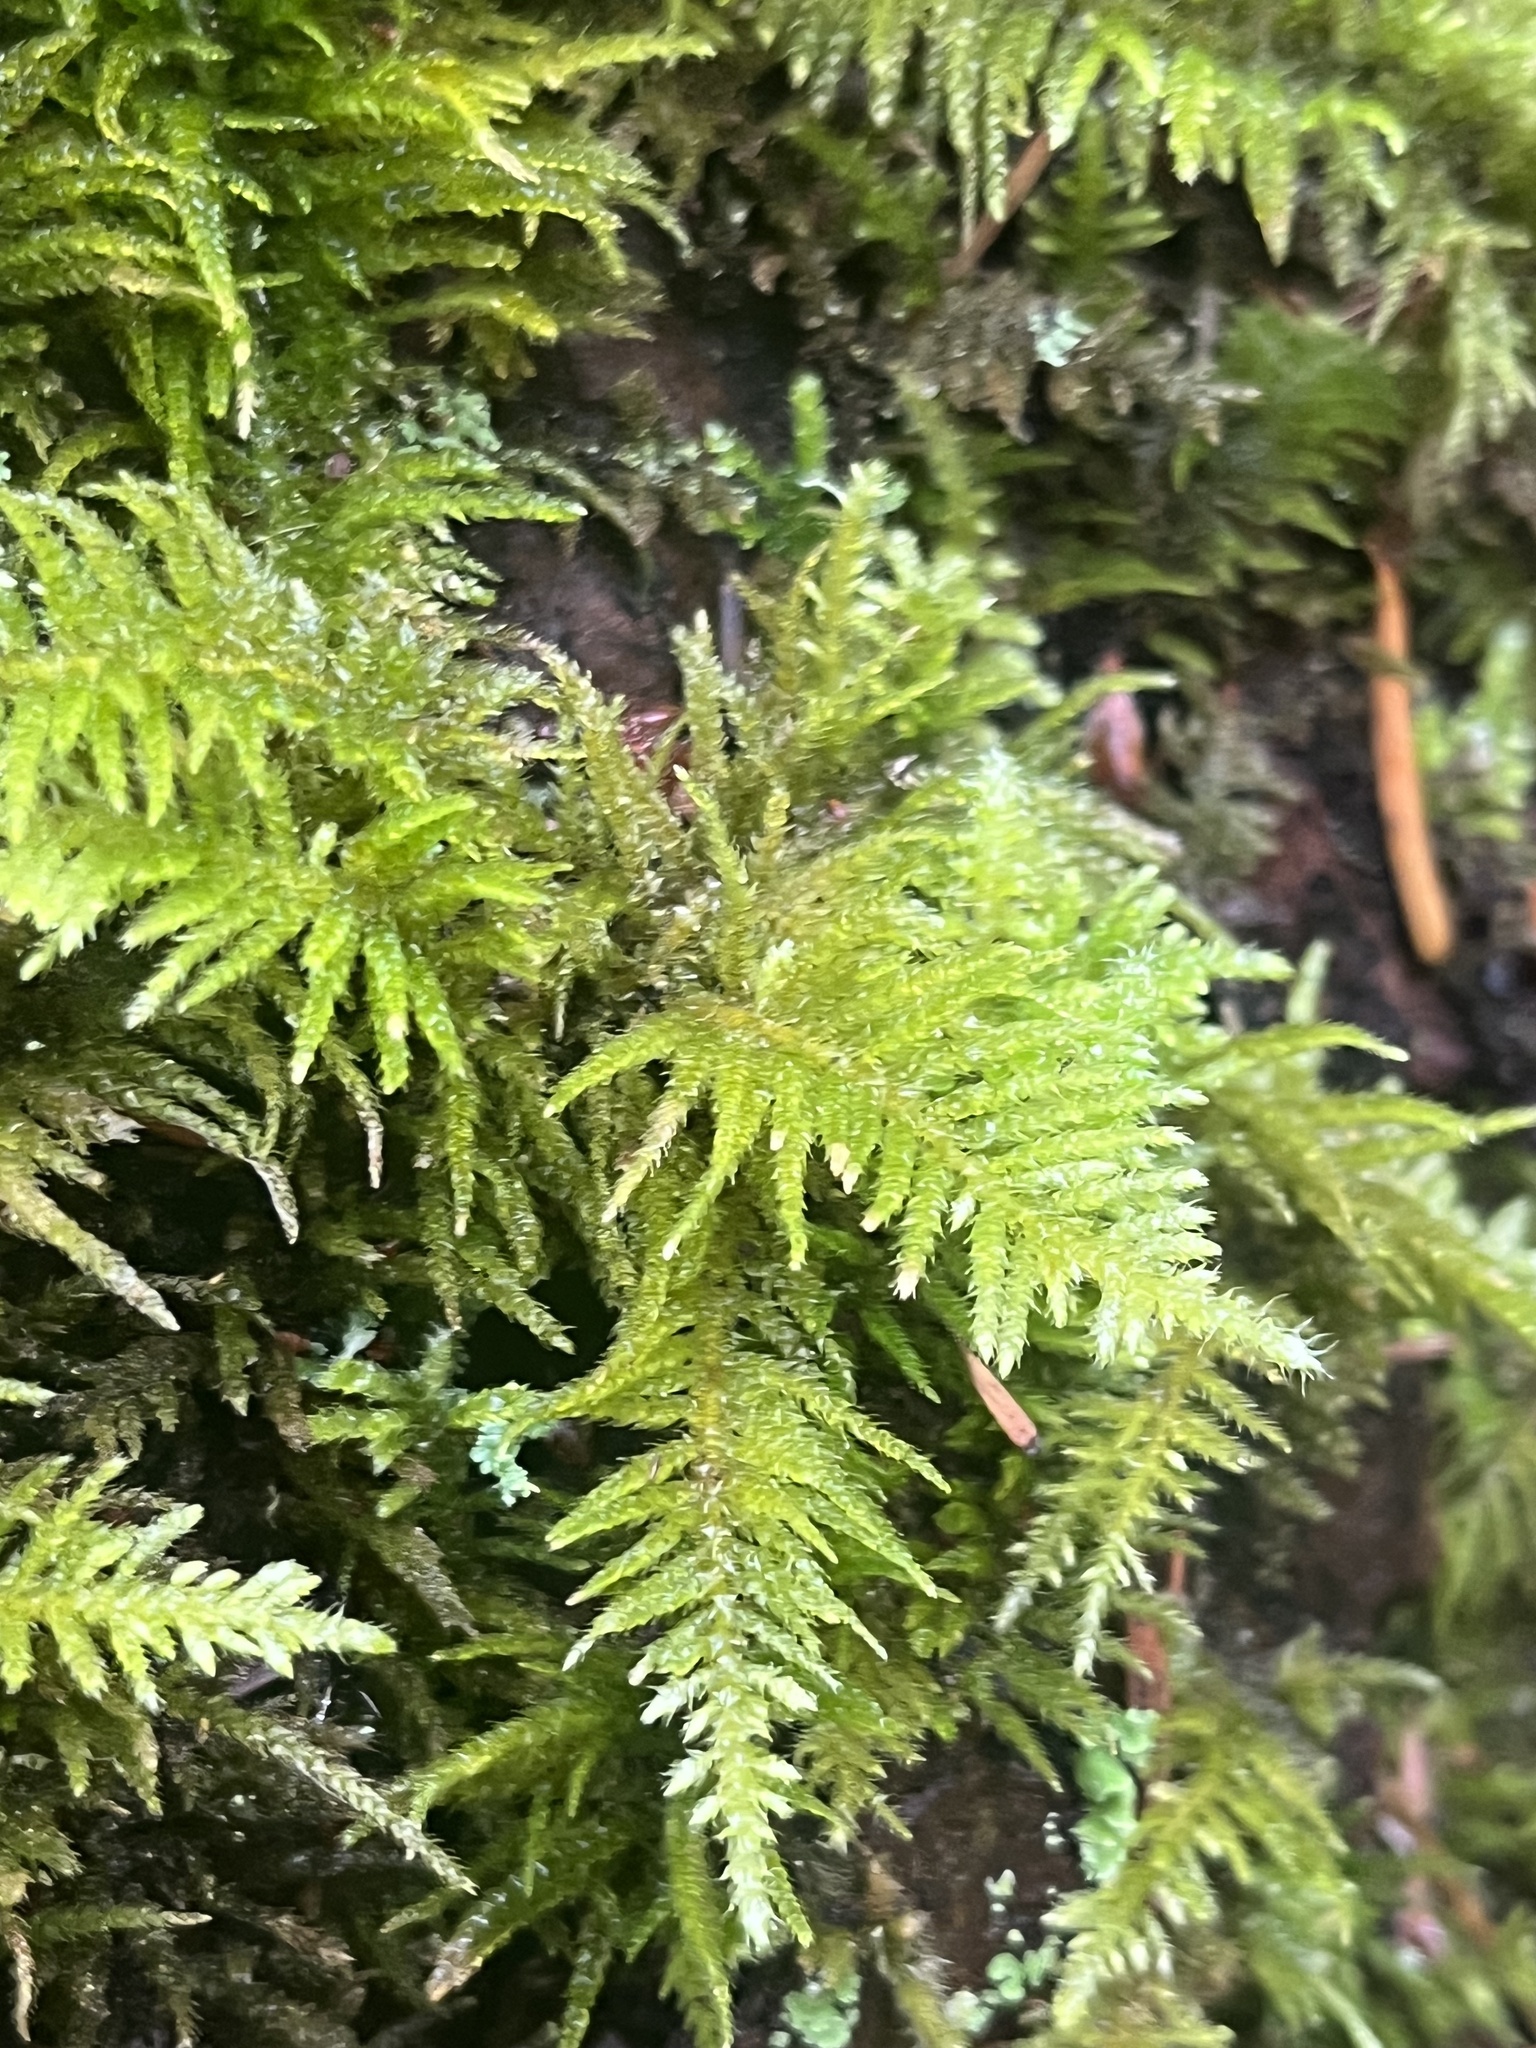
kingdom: Plantae
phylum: Bryophyta
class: Bryopsida
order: Hypnales
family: Brachytheciaceae
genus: Kindbergia
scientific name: Kindbergia oregana
